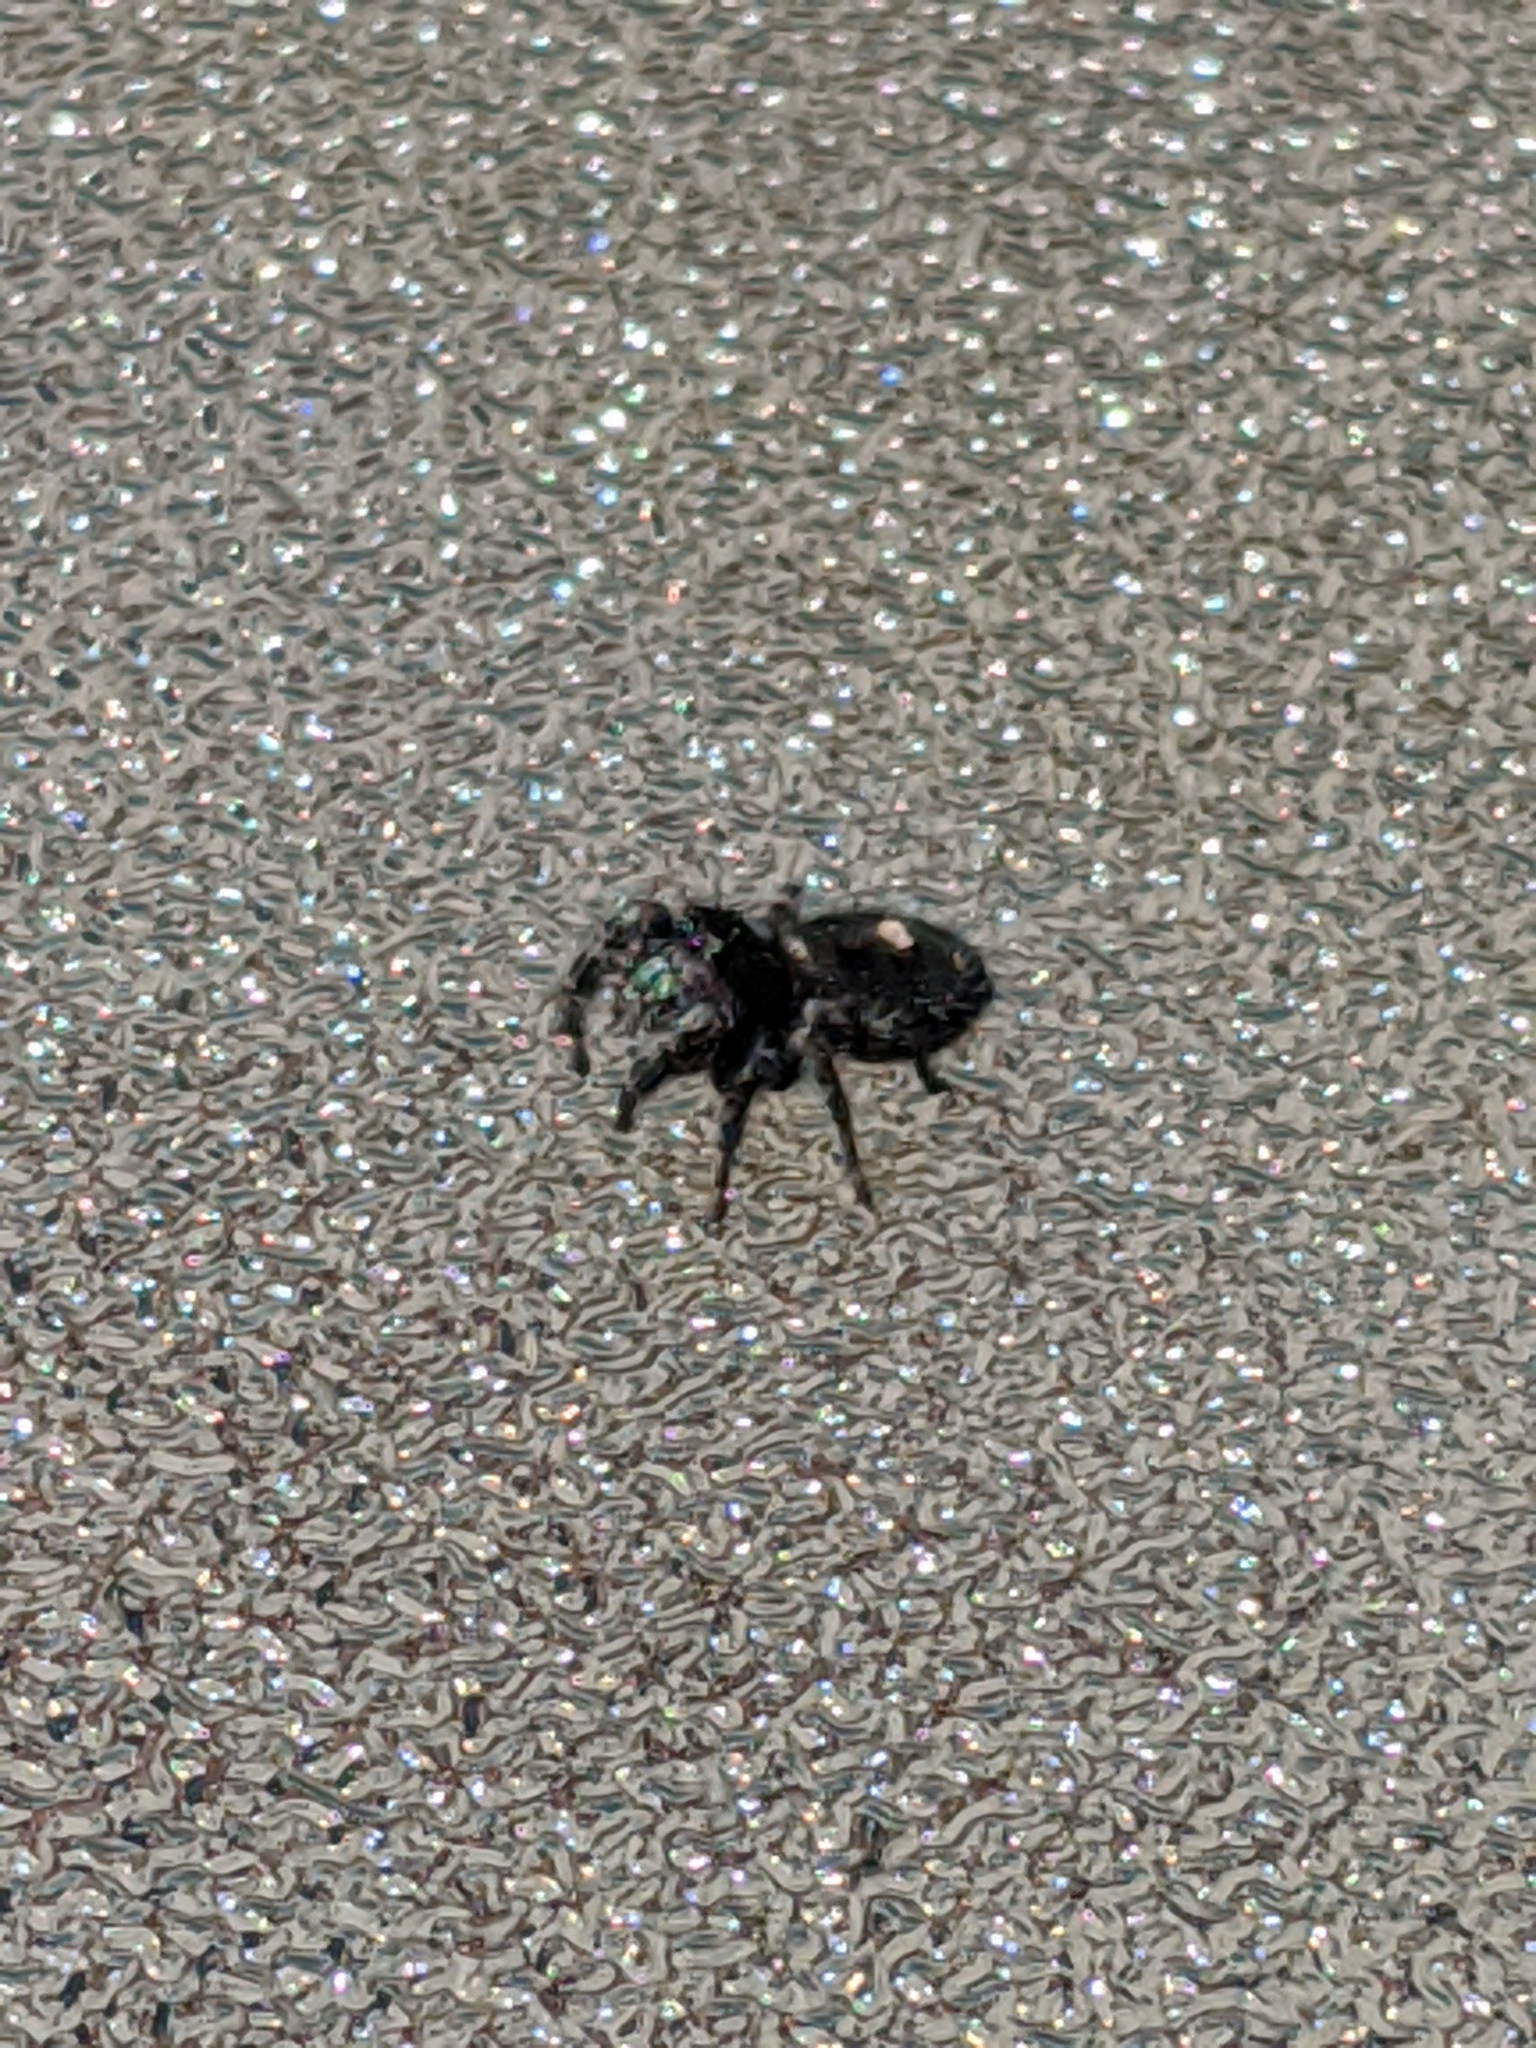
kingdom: Animalia
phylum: Arthropoda
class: Arachnida
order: Araneae
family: Salticidae
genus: Phidippus
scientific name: Phidippus audax
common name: Bold jumper
